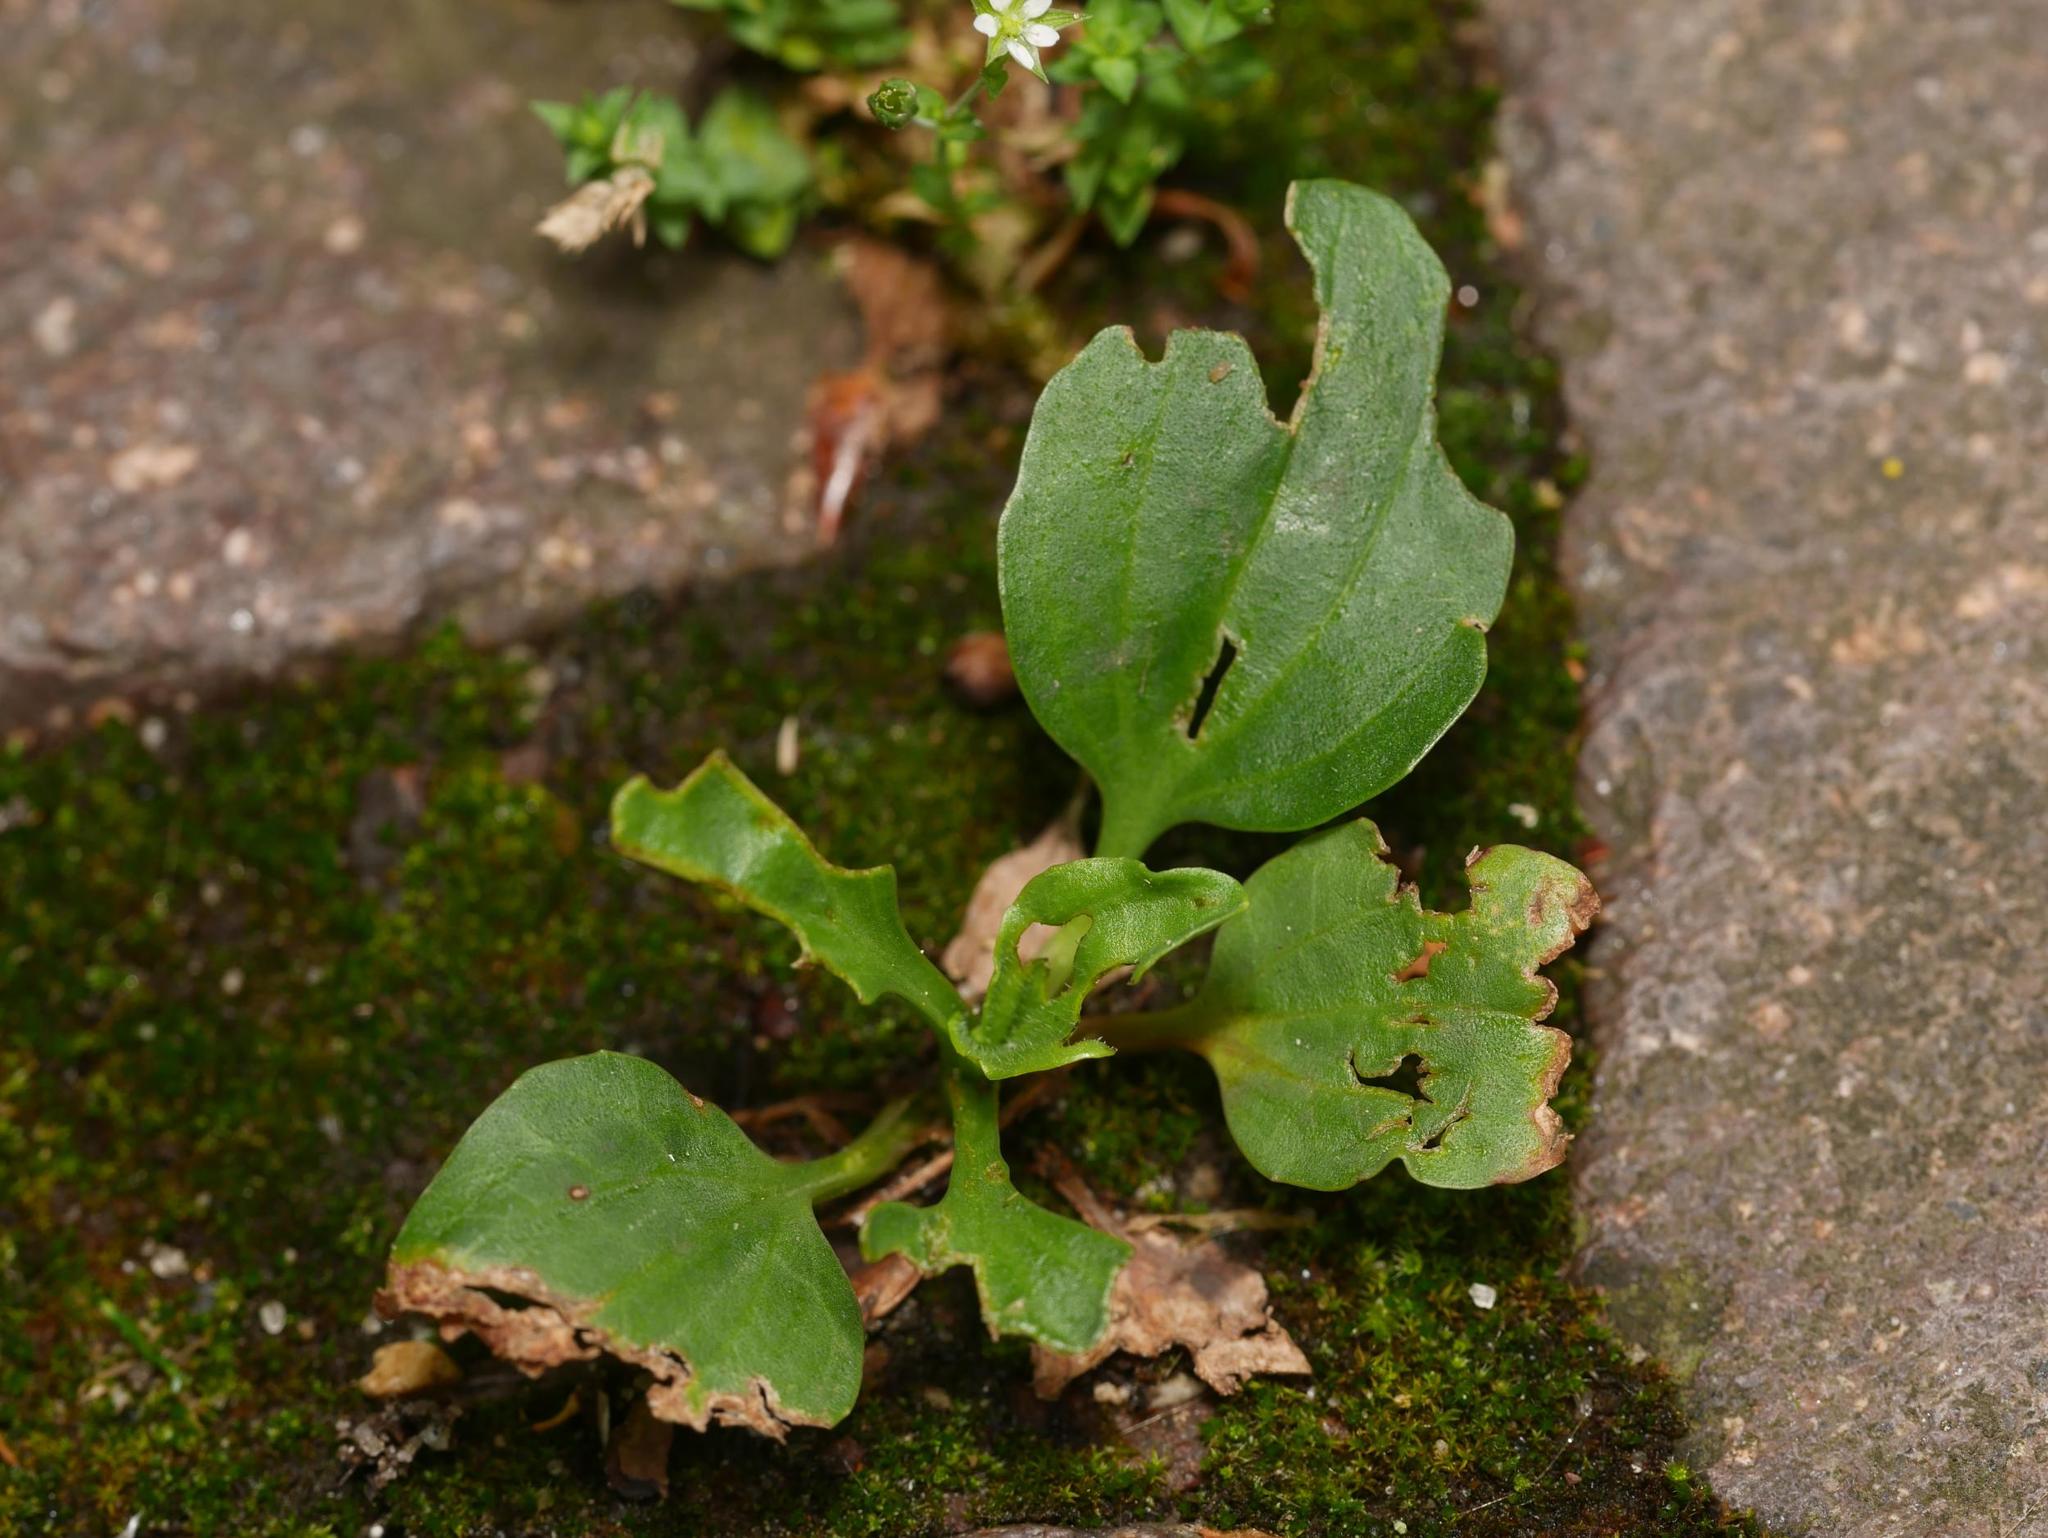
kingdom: Plantae
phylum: Tracheophyta
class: Magnoliopsida
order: Lamiales
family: Plantaginaceae
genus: Plantago
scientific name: Plantago major
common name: Common plantain
